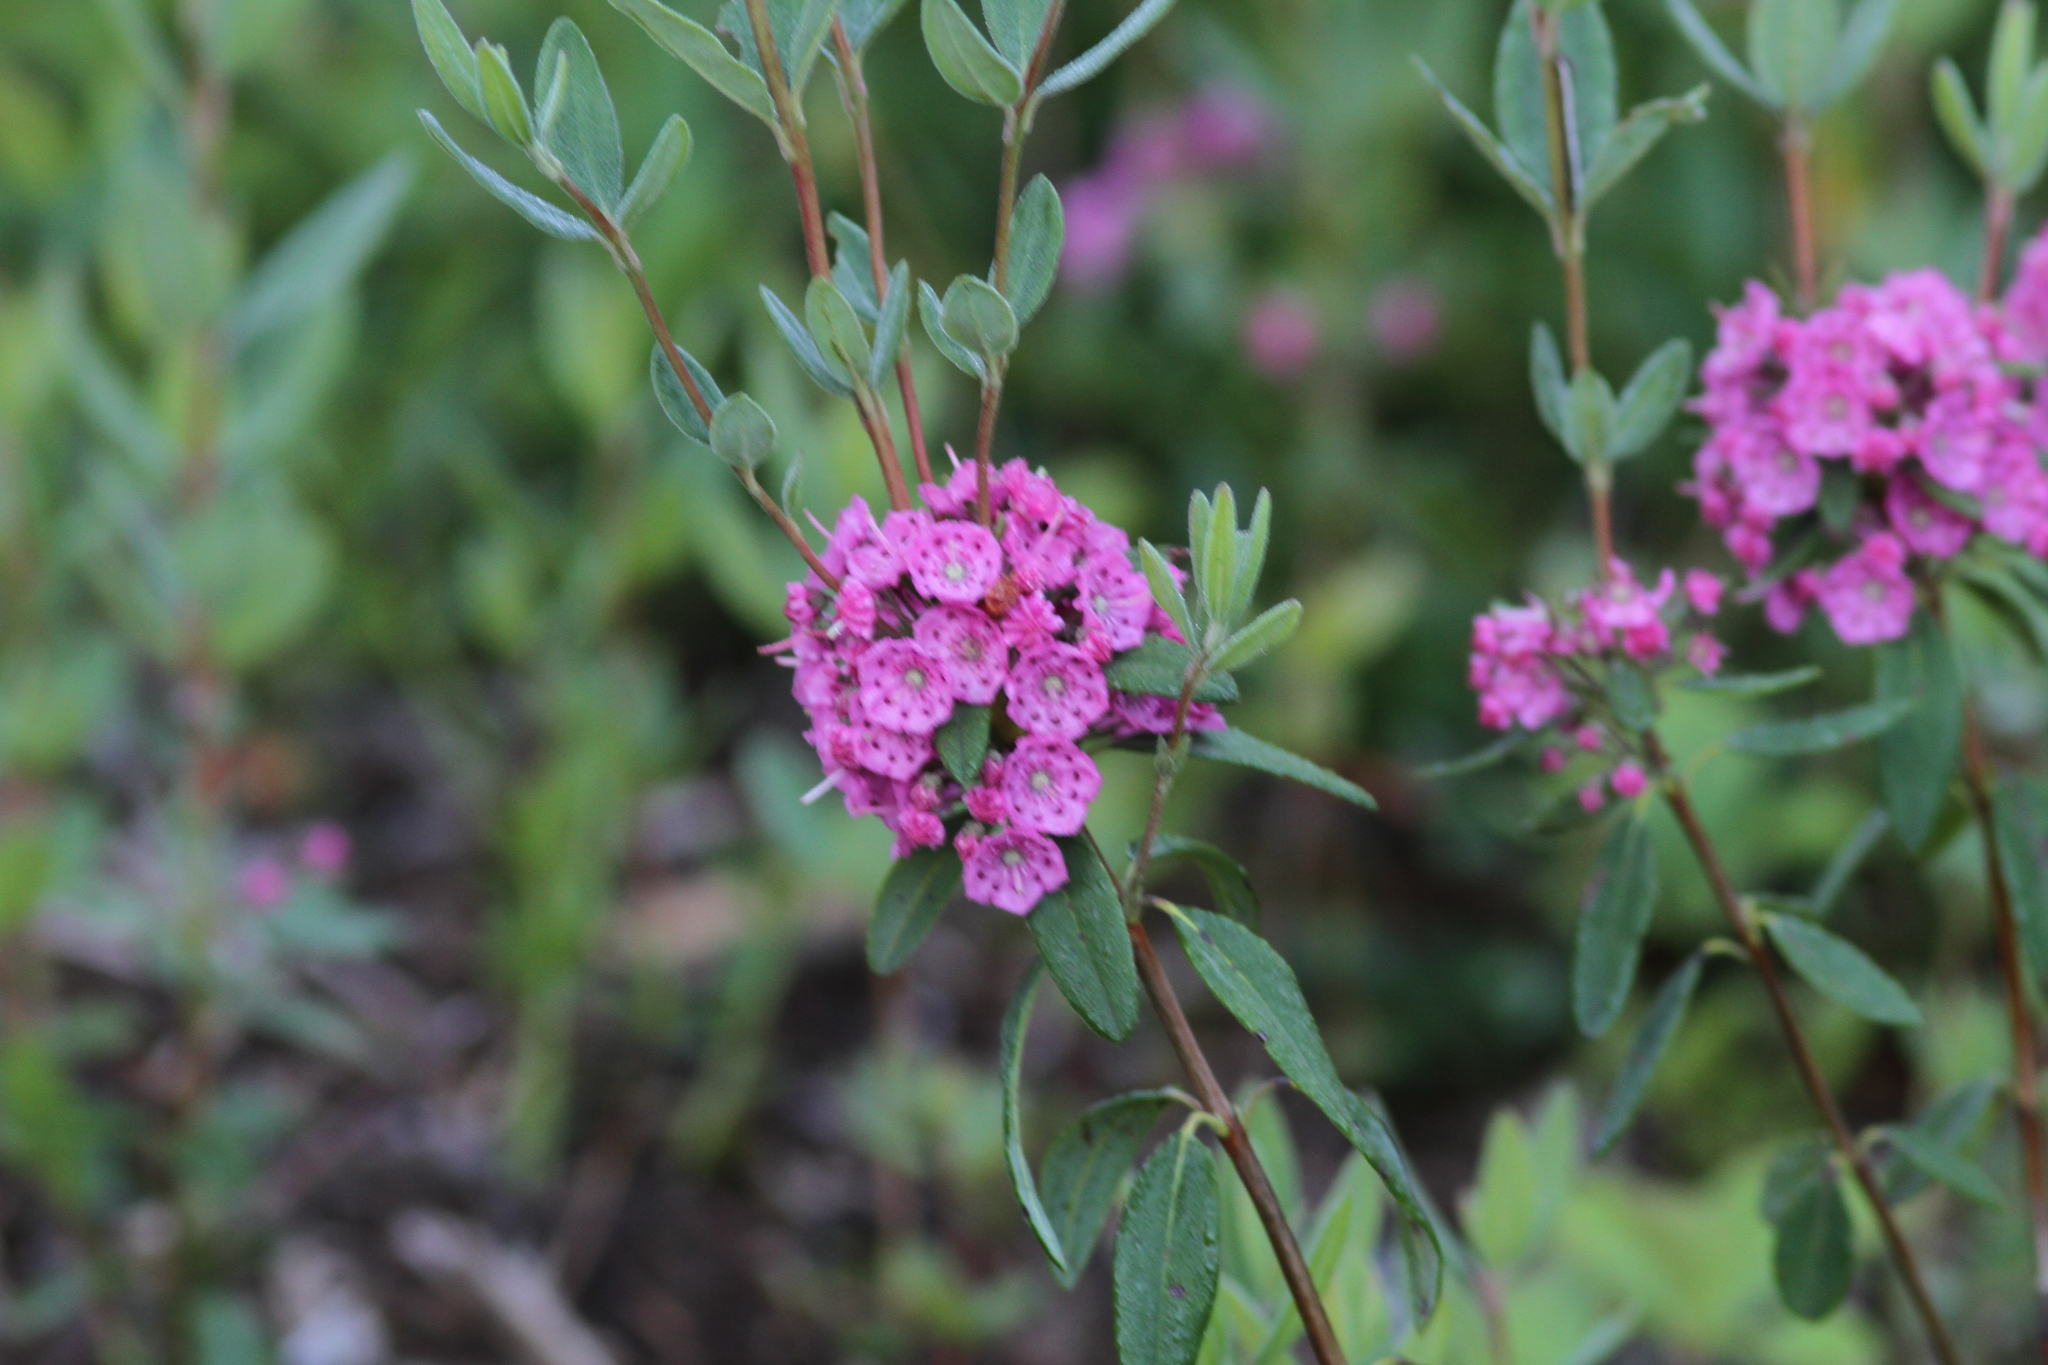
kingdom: Plantae
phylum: Tracheophyta
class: Magnoliopsida
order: Ericales
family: Ericaceae
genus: Kalmia
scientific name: Kalmia angustifolia
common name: Sheep-laurel
